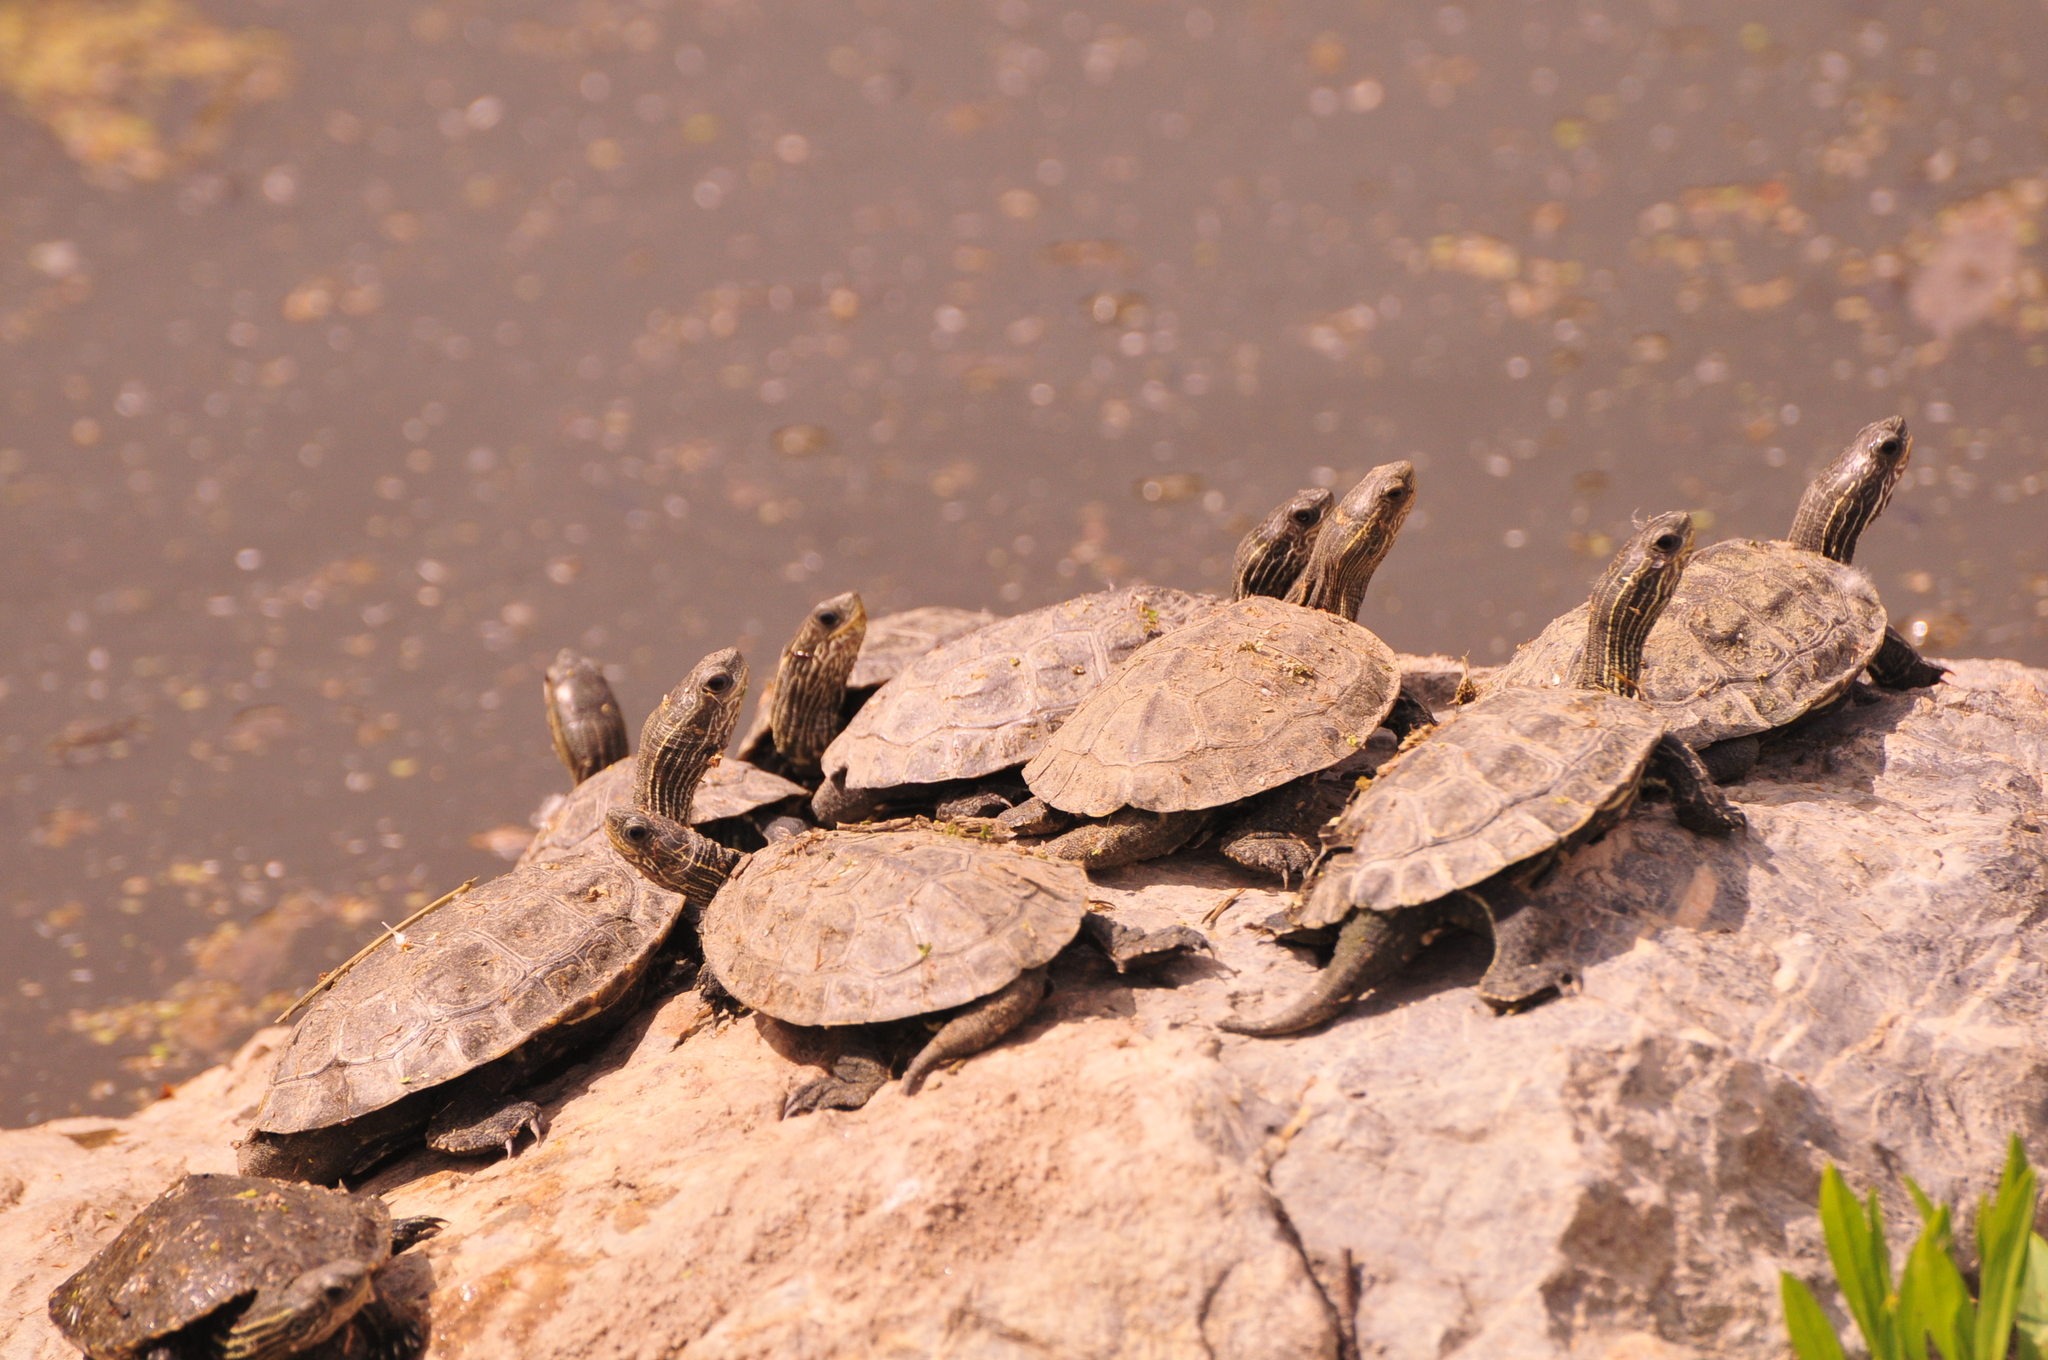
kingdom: Animalia
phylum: Chordata
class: Testudines
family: Geoemydidae
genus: Mauremys
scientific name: Mauremys rivulata
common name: Western caspian turtle
